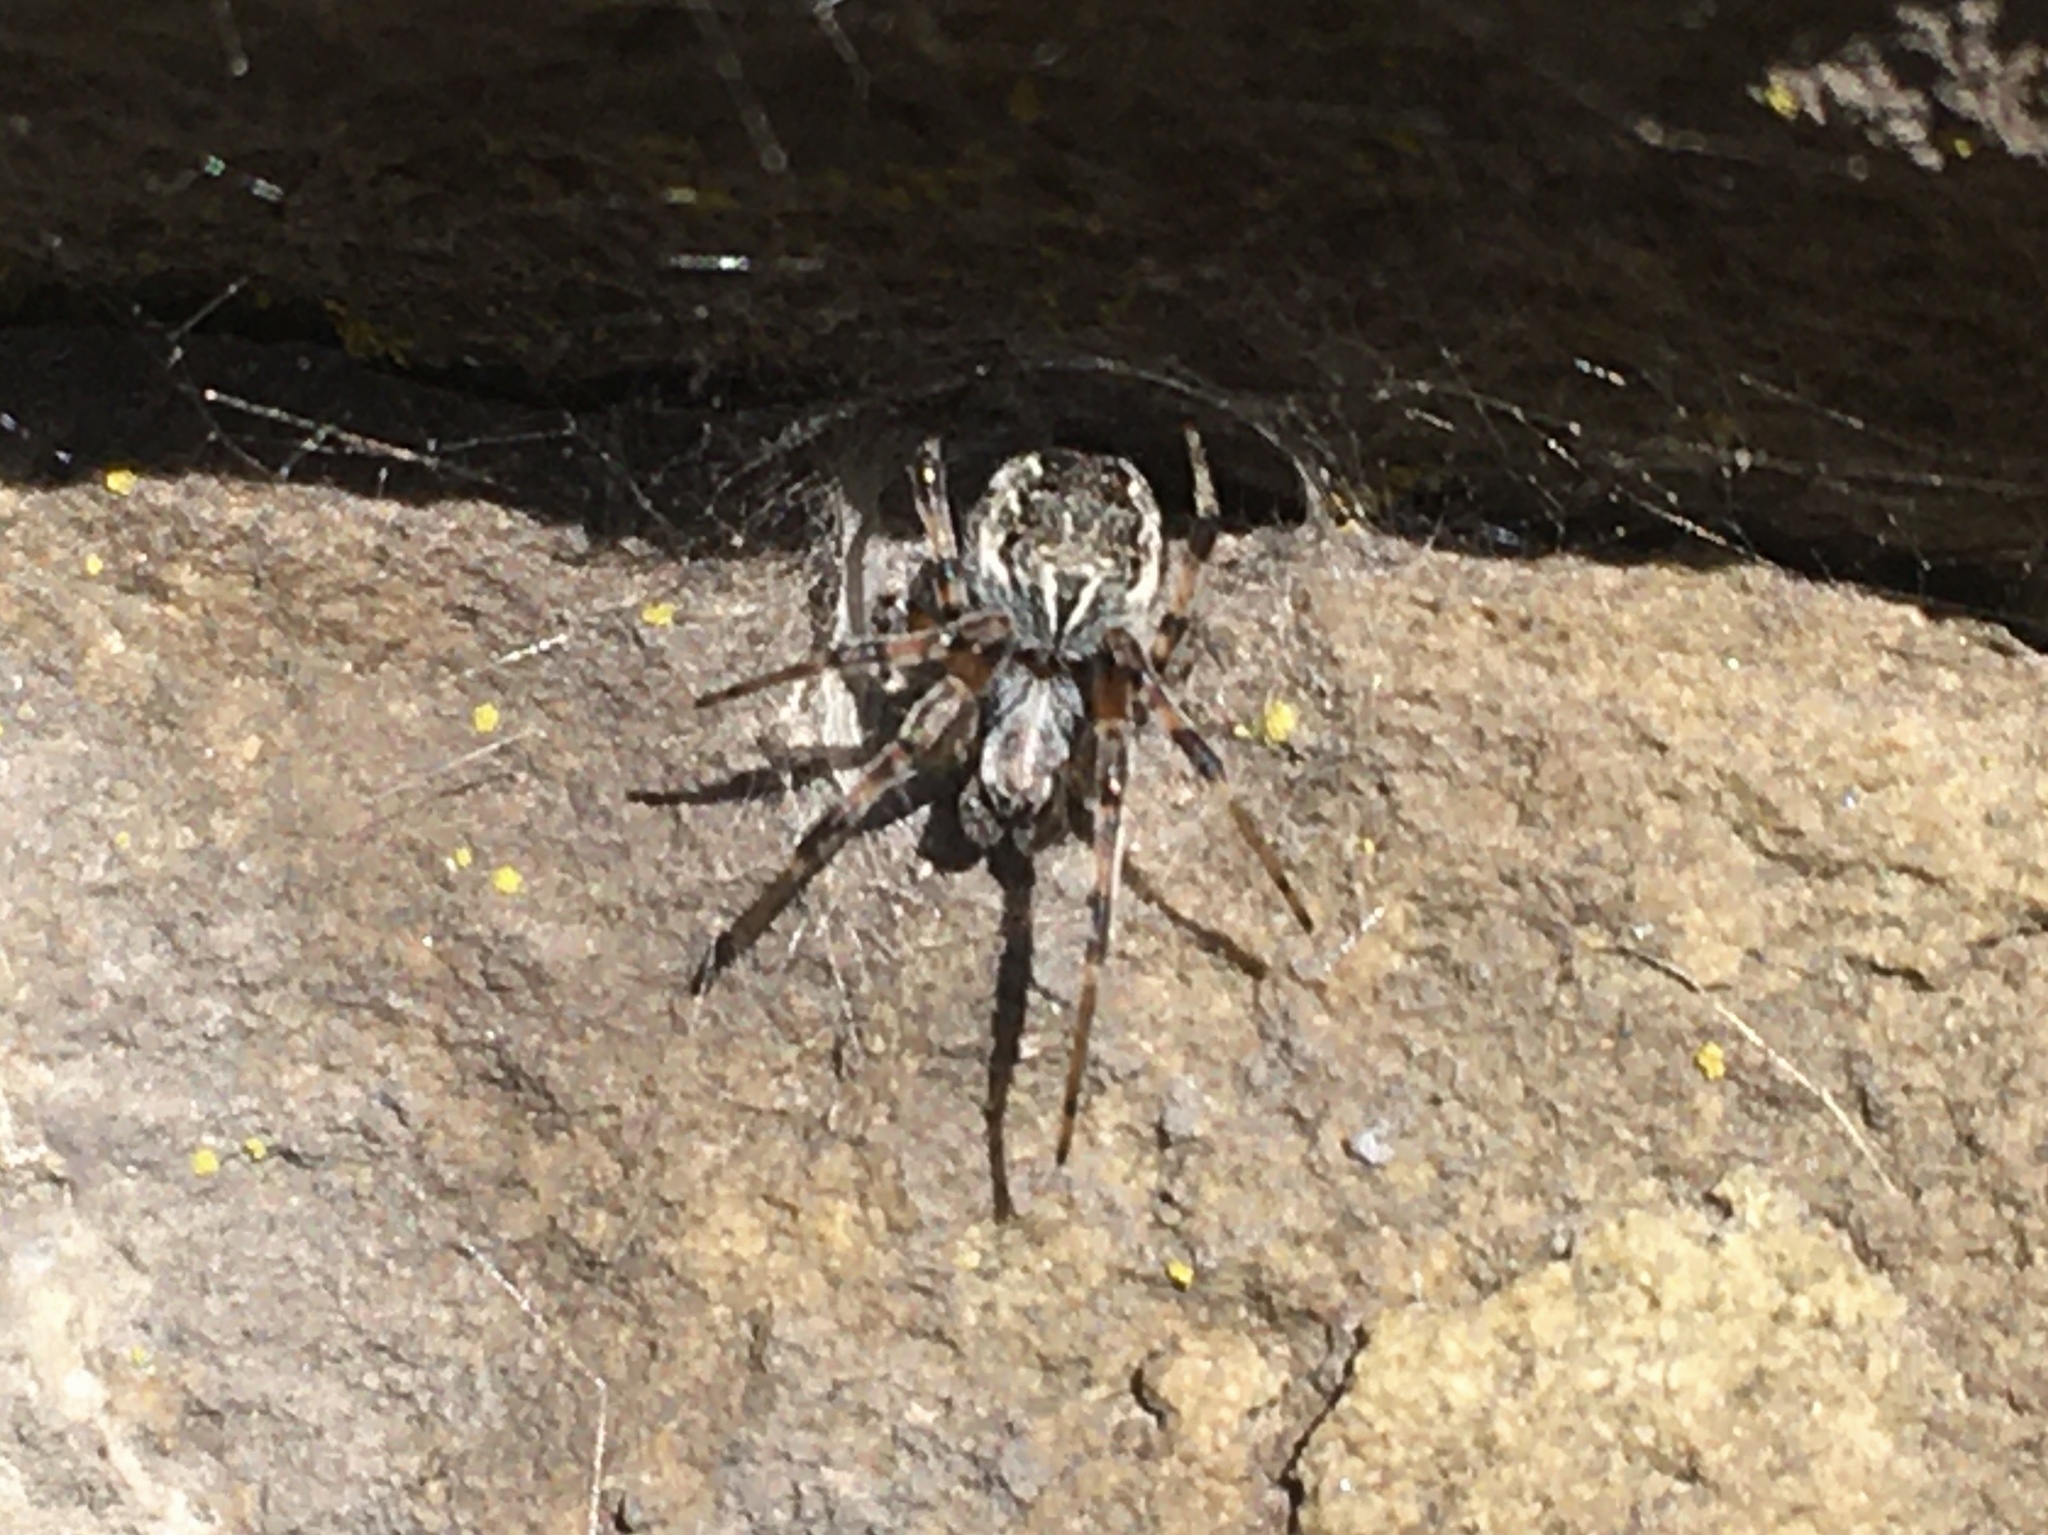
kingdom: Animalia
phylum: Arthropoda
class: Arachnida
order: Araneae
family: Araneidae
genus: Metepeira
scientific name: Metepeira
